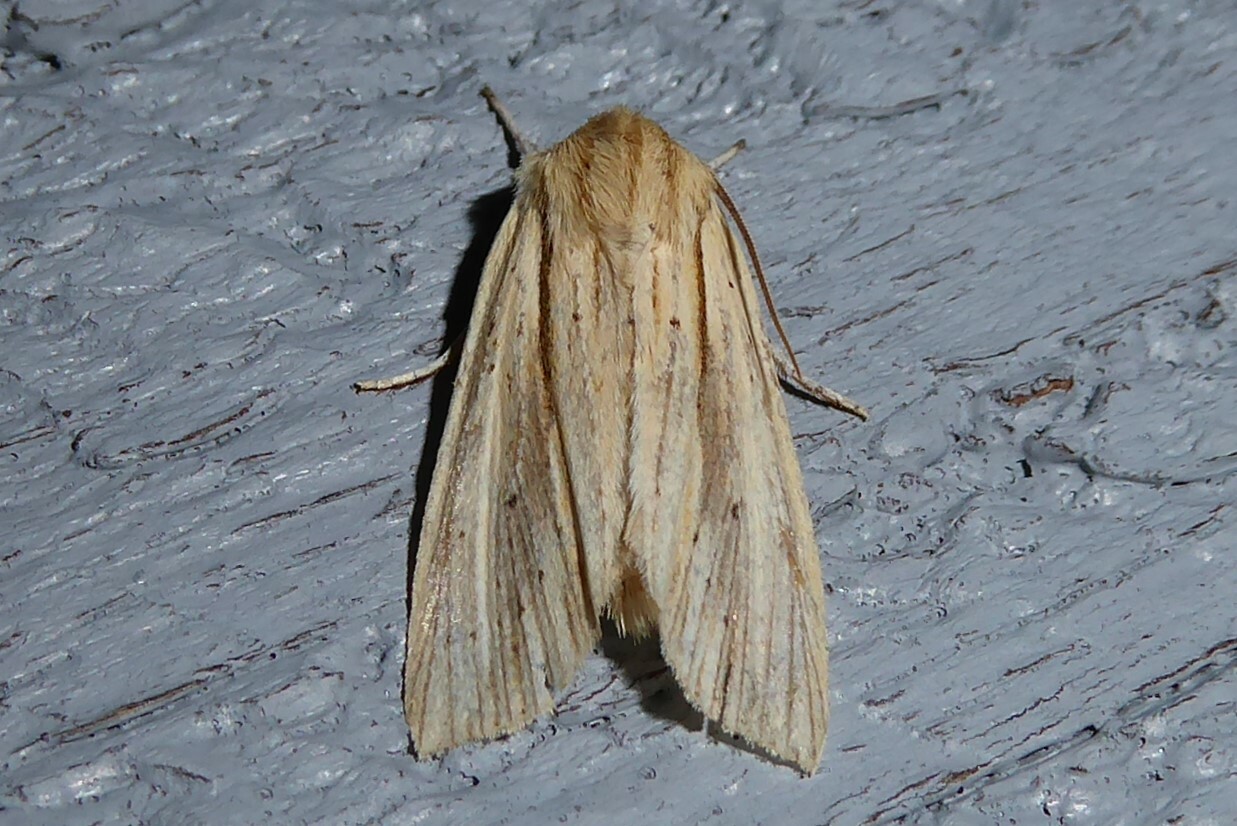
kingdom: Animalia
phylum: Arthropoda
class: Insecta
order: Lepidoptera
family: Noctuidae
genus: Ichneutica
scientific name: Ichneutica semivittata
